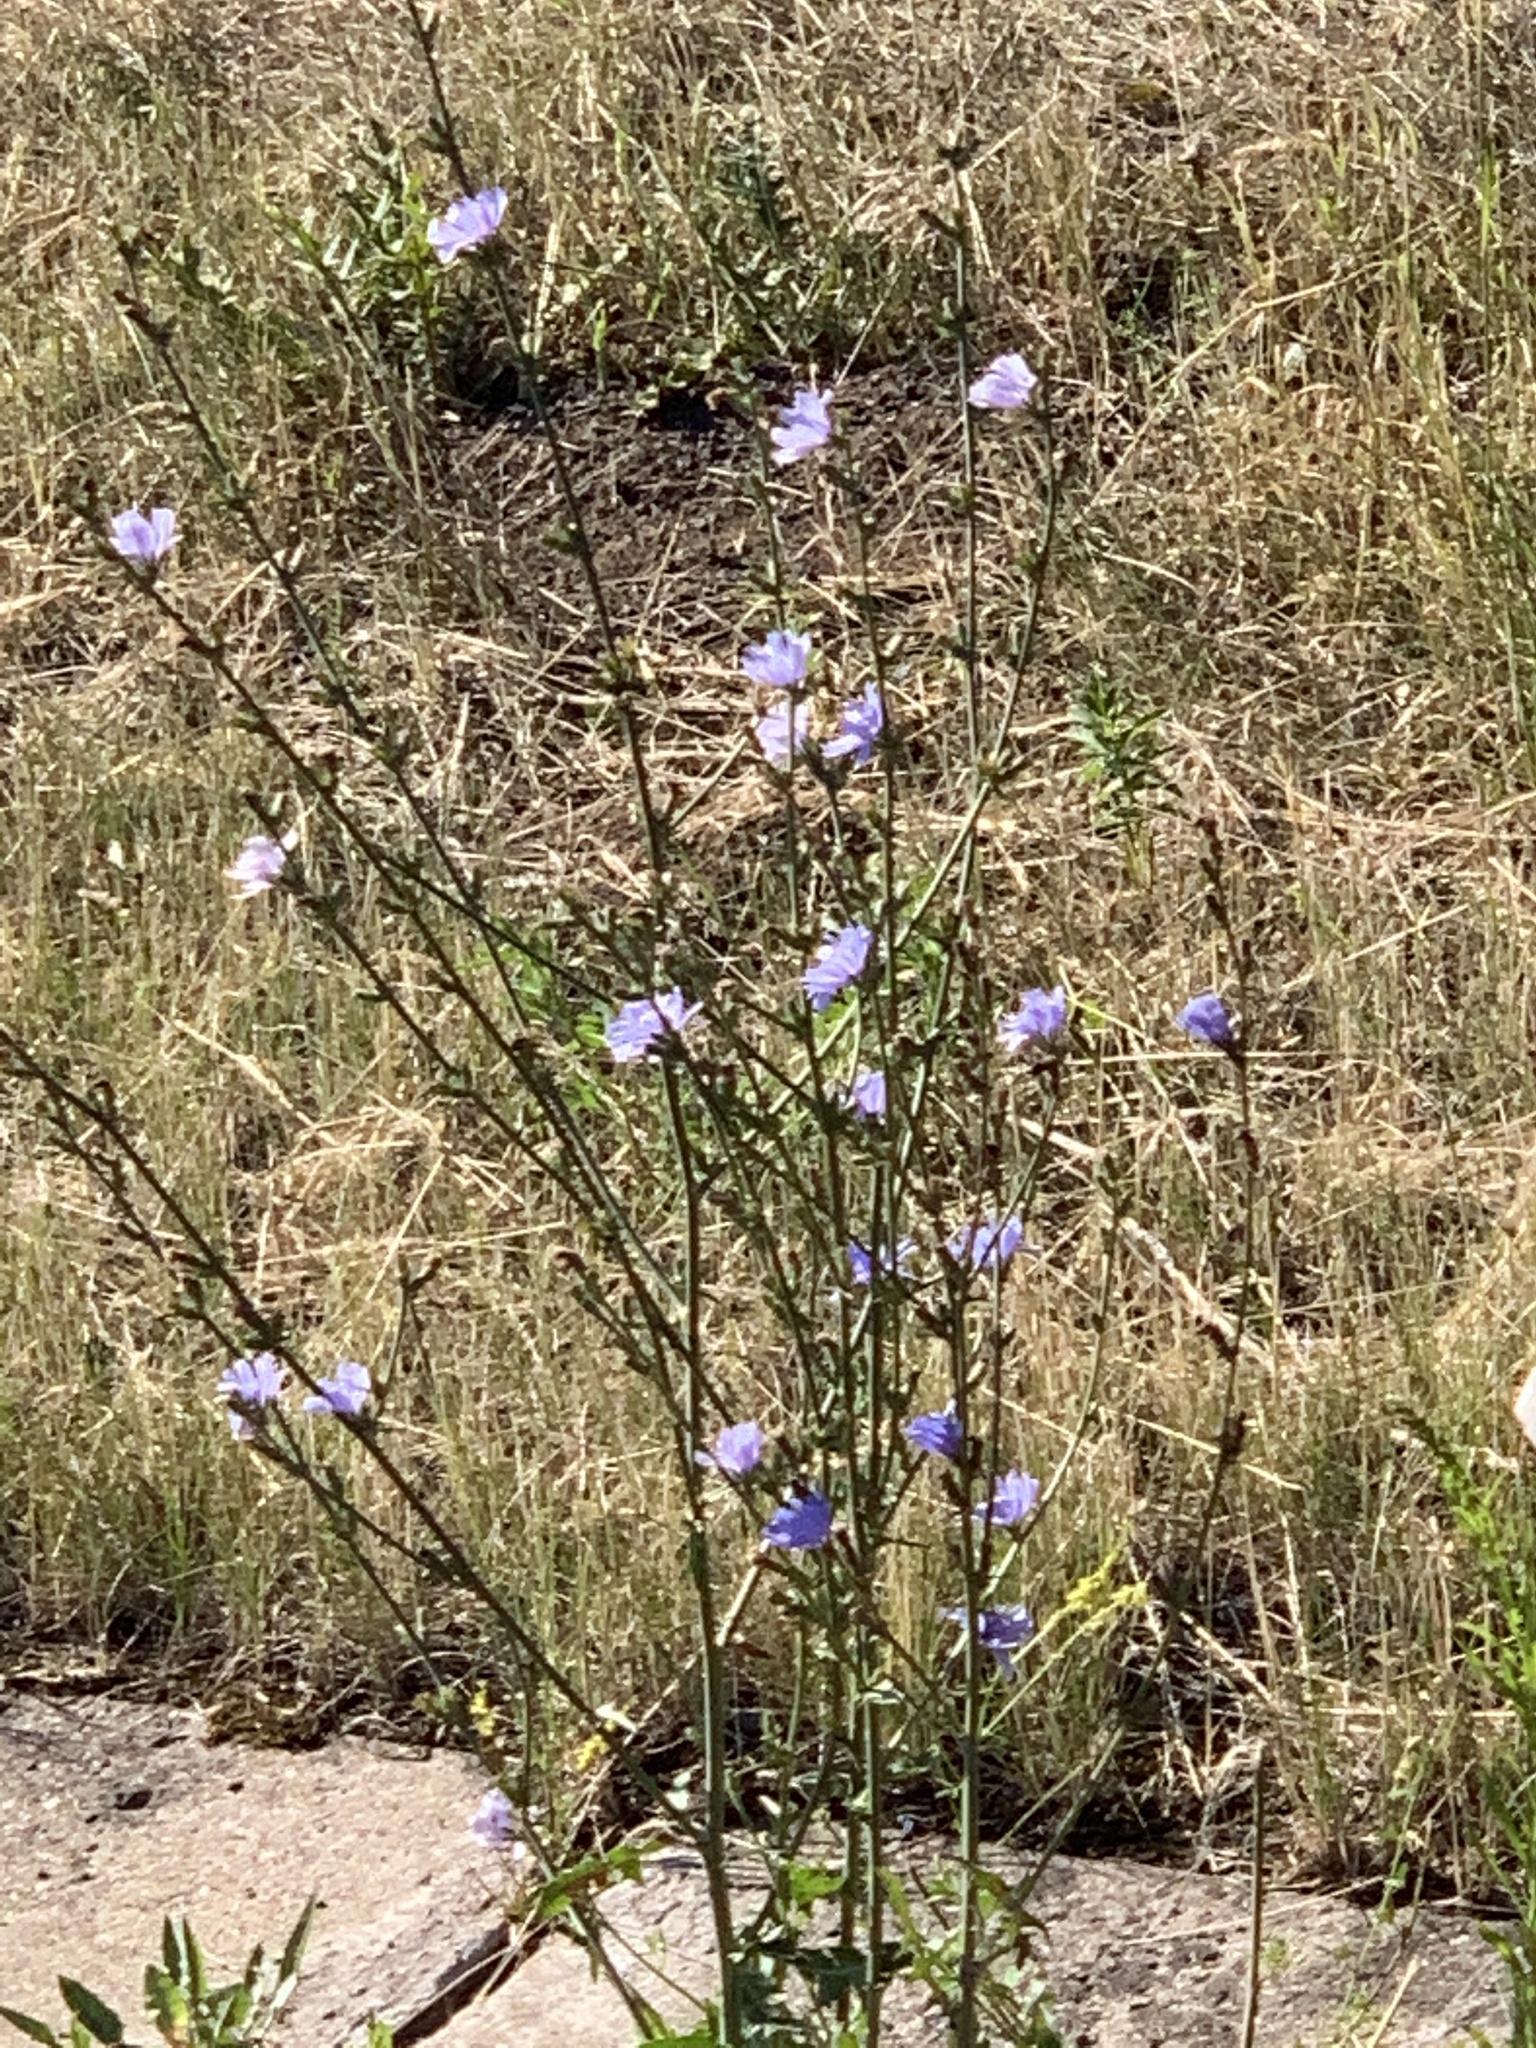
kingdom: Plantae
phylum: Tracheophyta
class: Magnoliopsida
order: Asterales
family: Asteraceae
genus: Cichorium
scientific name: Cichorium intybus
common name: Chicory
